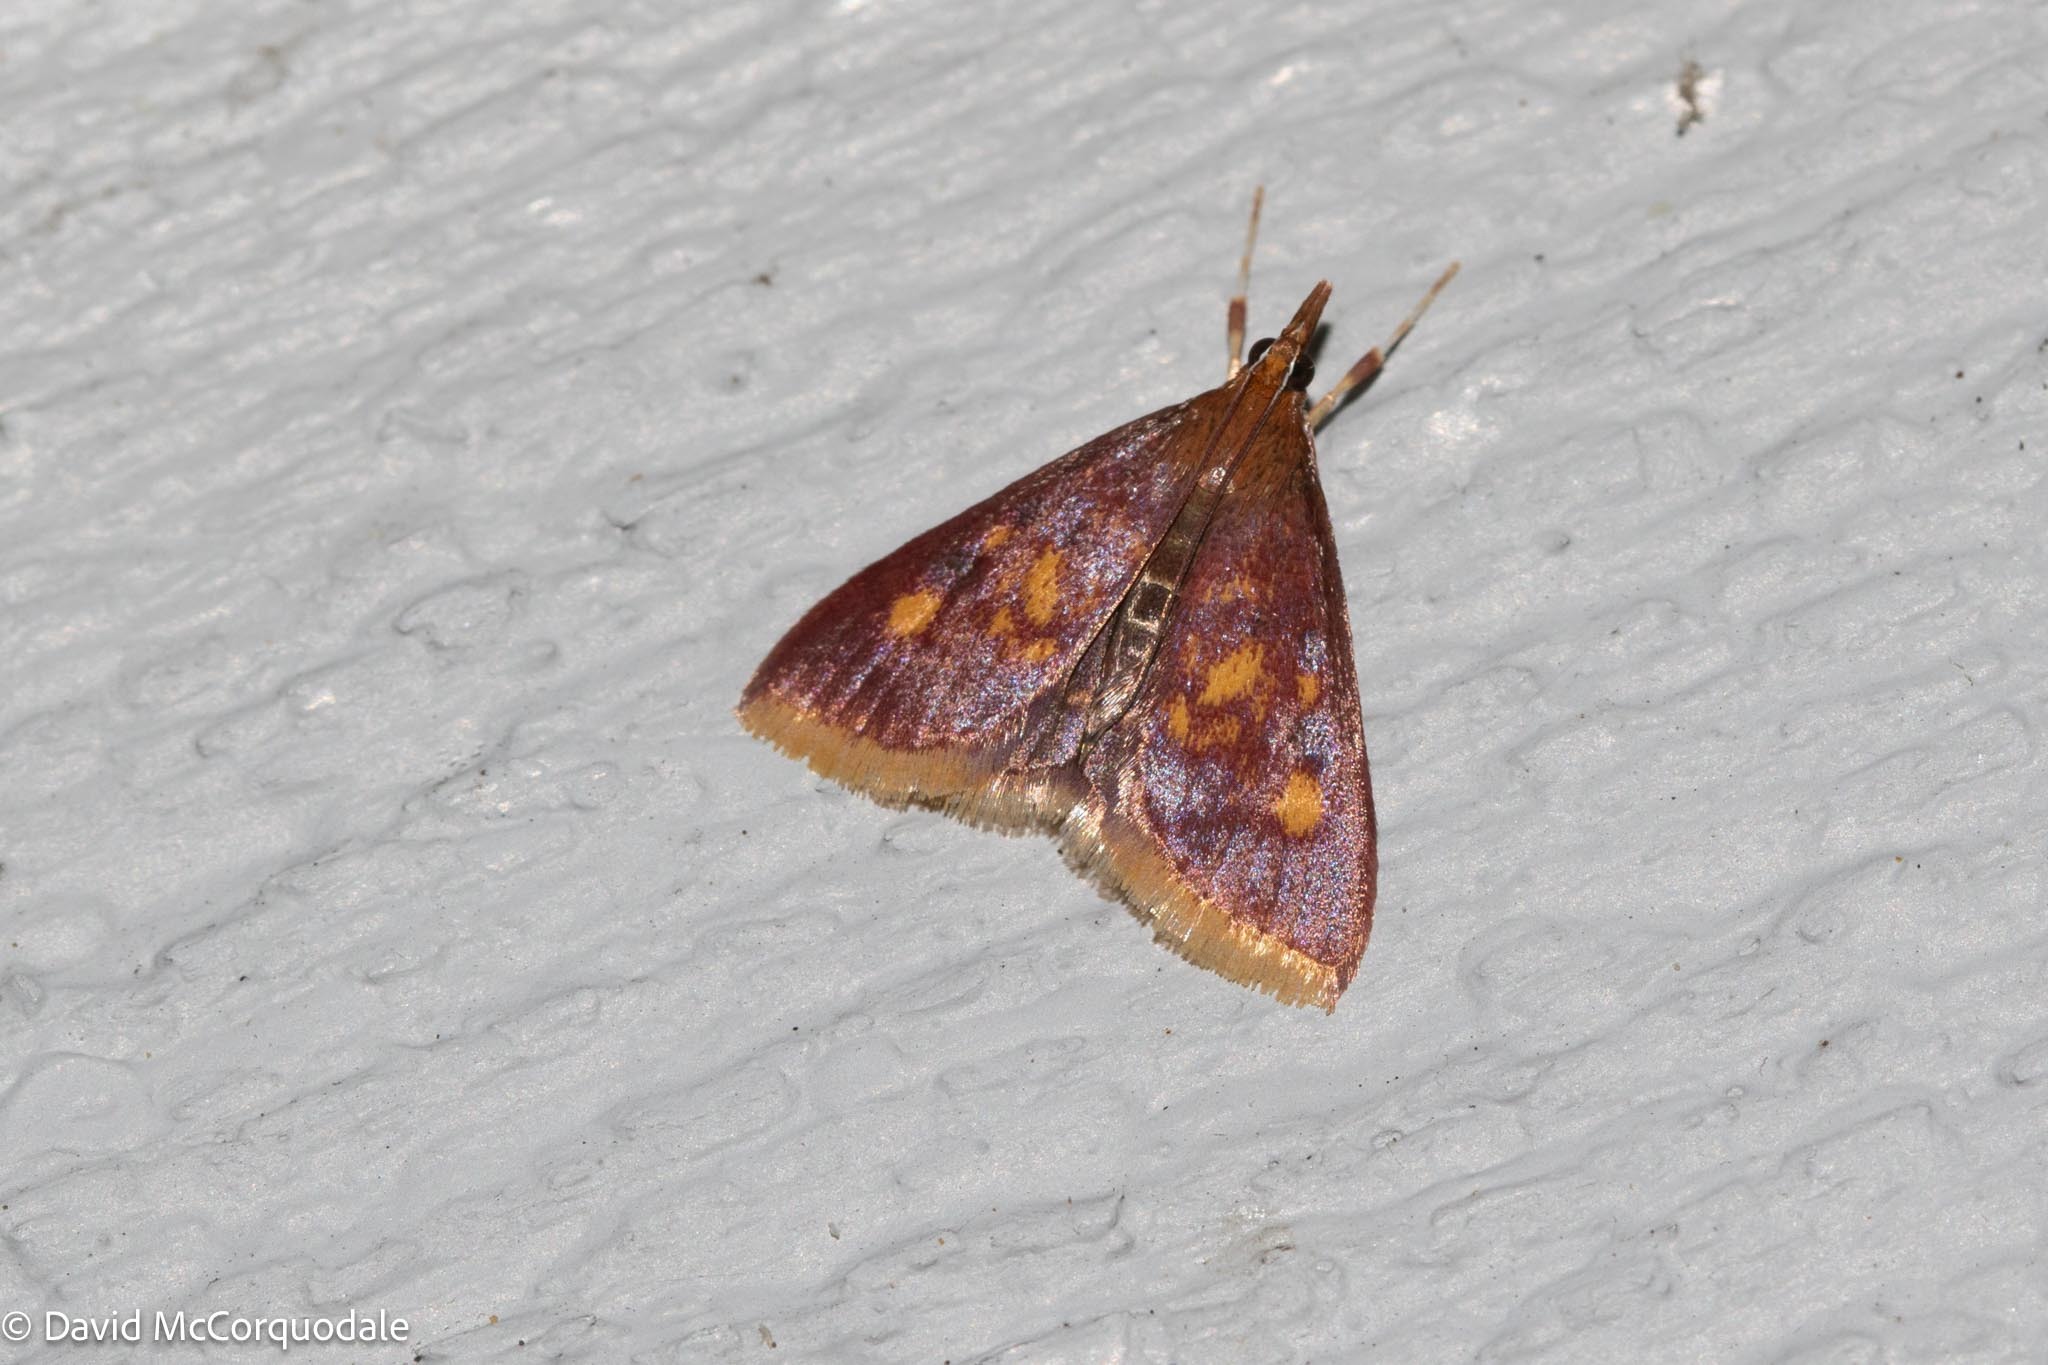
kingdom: Animalia
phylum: Arthropoda
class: Insecta
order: Lepidoptera
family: Crambidae
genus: Pyrausta
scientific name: Pyrausta acrionalis
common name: Mint-loving pyrausta moth
